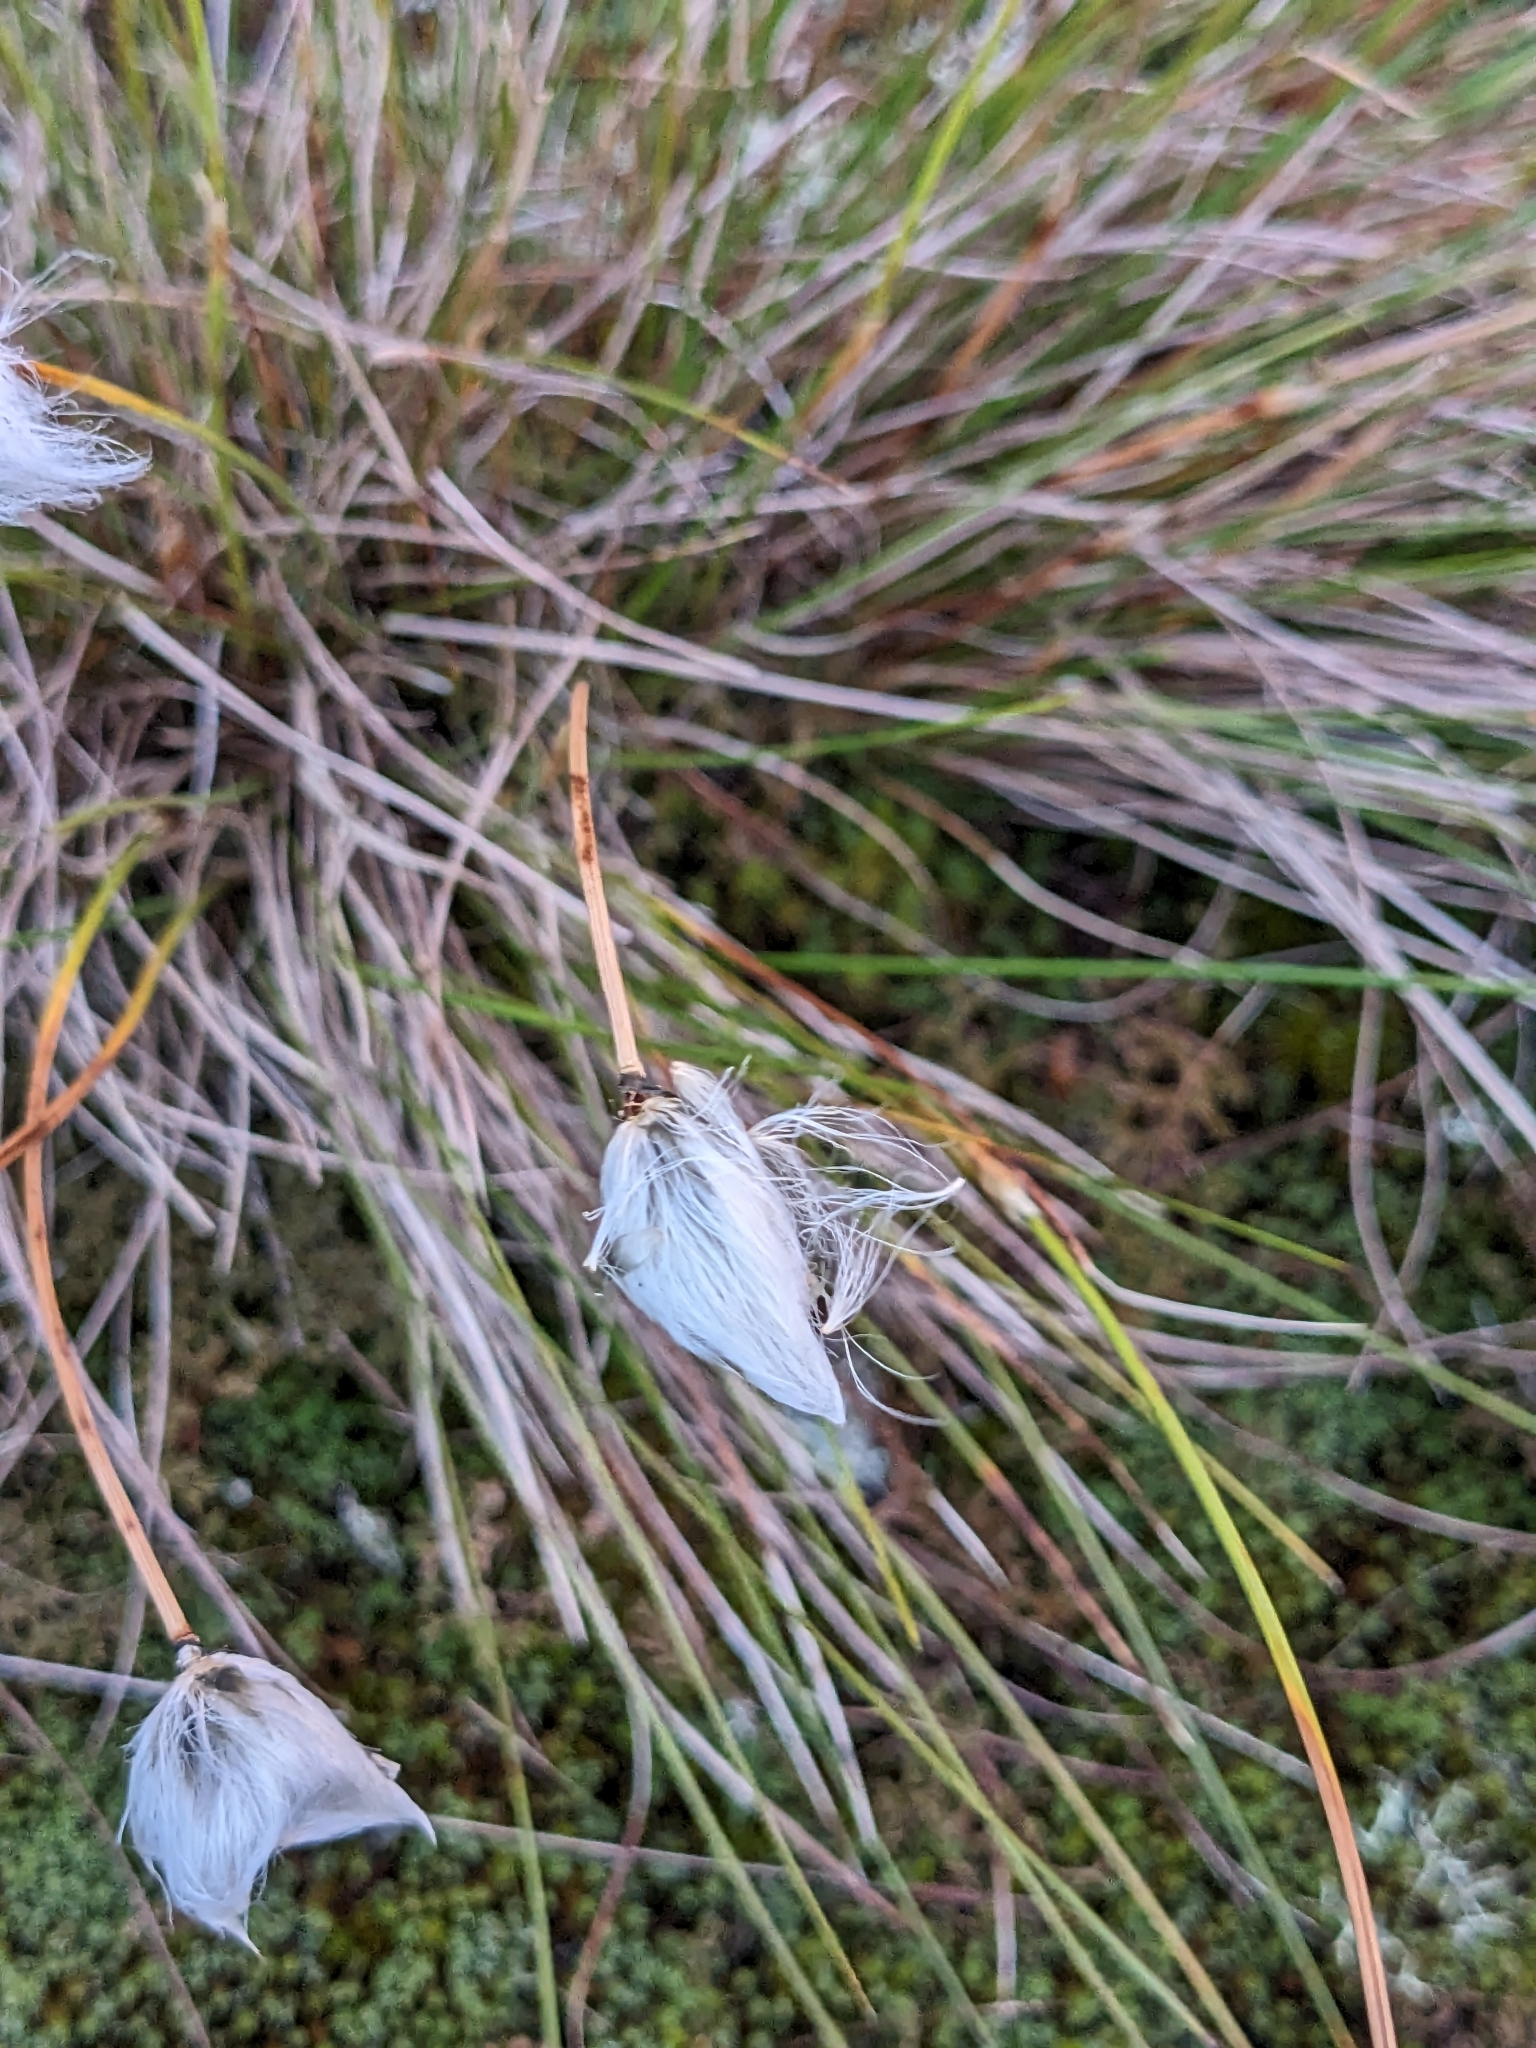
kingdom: Plantae
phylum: Tracheophyta
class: Liliopsida
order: Poales
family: Cyperaceae
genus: Eriophorum
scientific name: Eriophorum vaginatum
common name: Hare's-tail cottongrass
